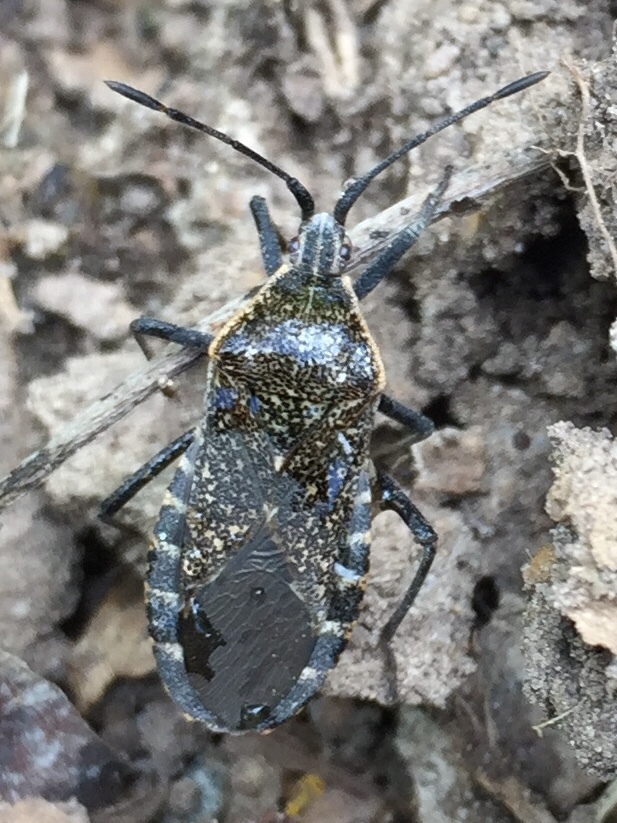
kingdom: Animalia
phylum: Arthropoda
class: Insecta
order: Hemiptera
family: Coreidae
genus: Anasa
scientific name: Anasa tristis
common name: Squash bug
